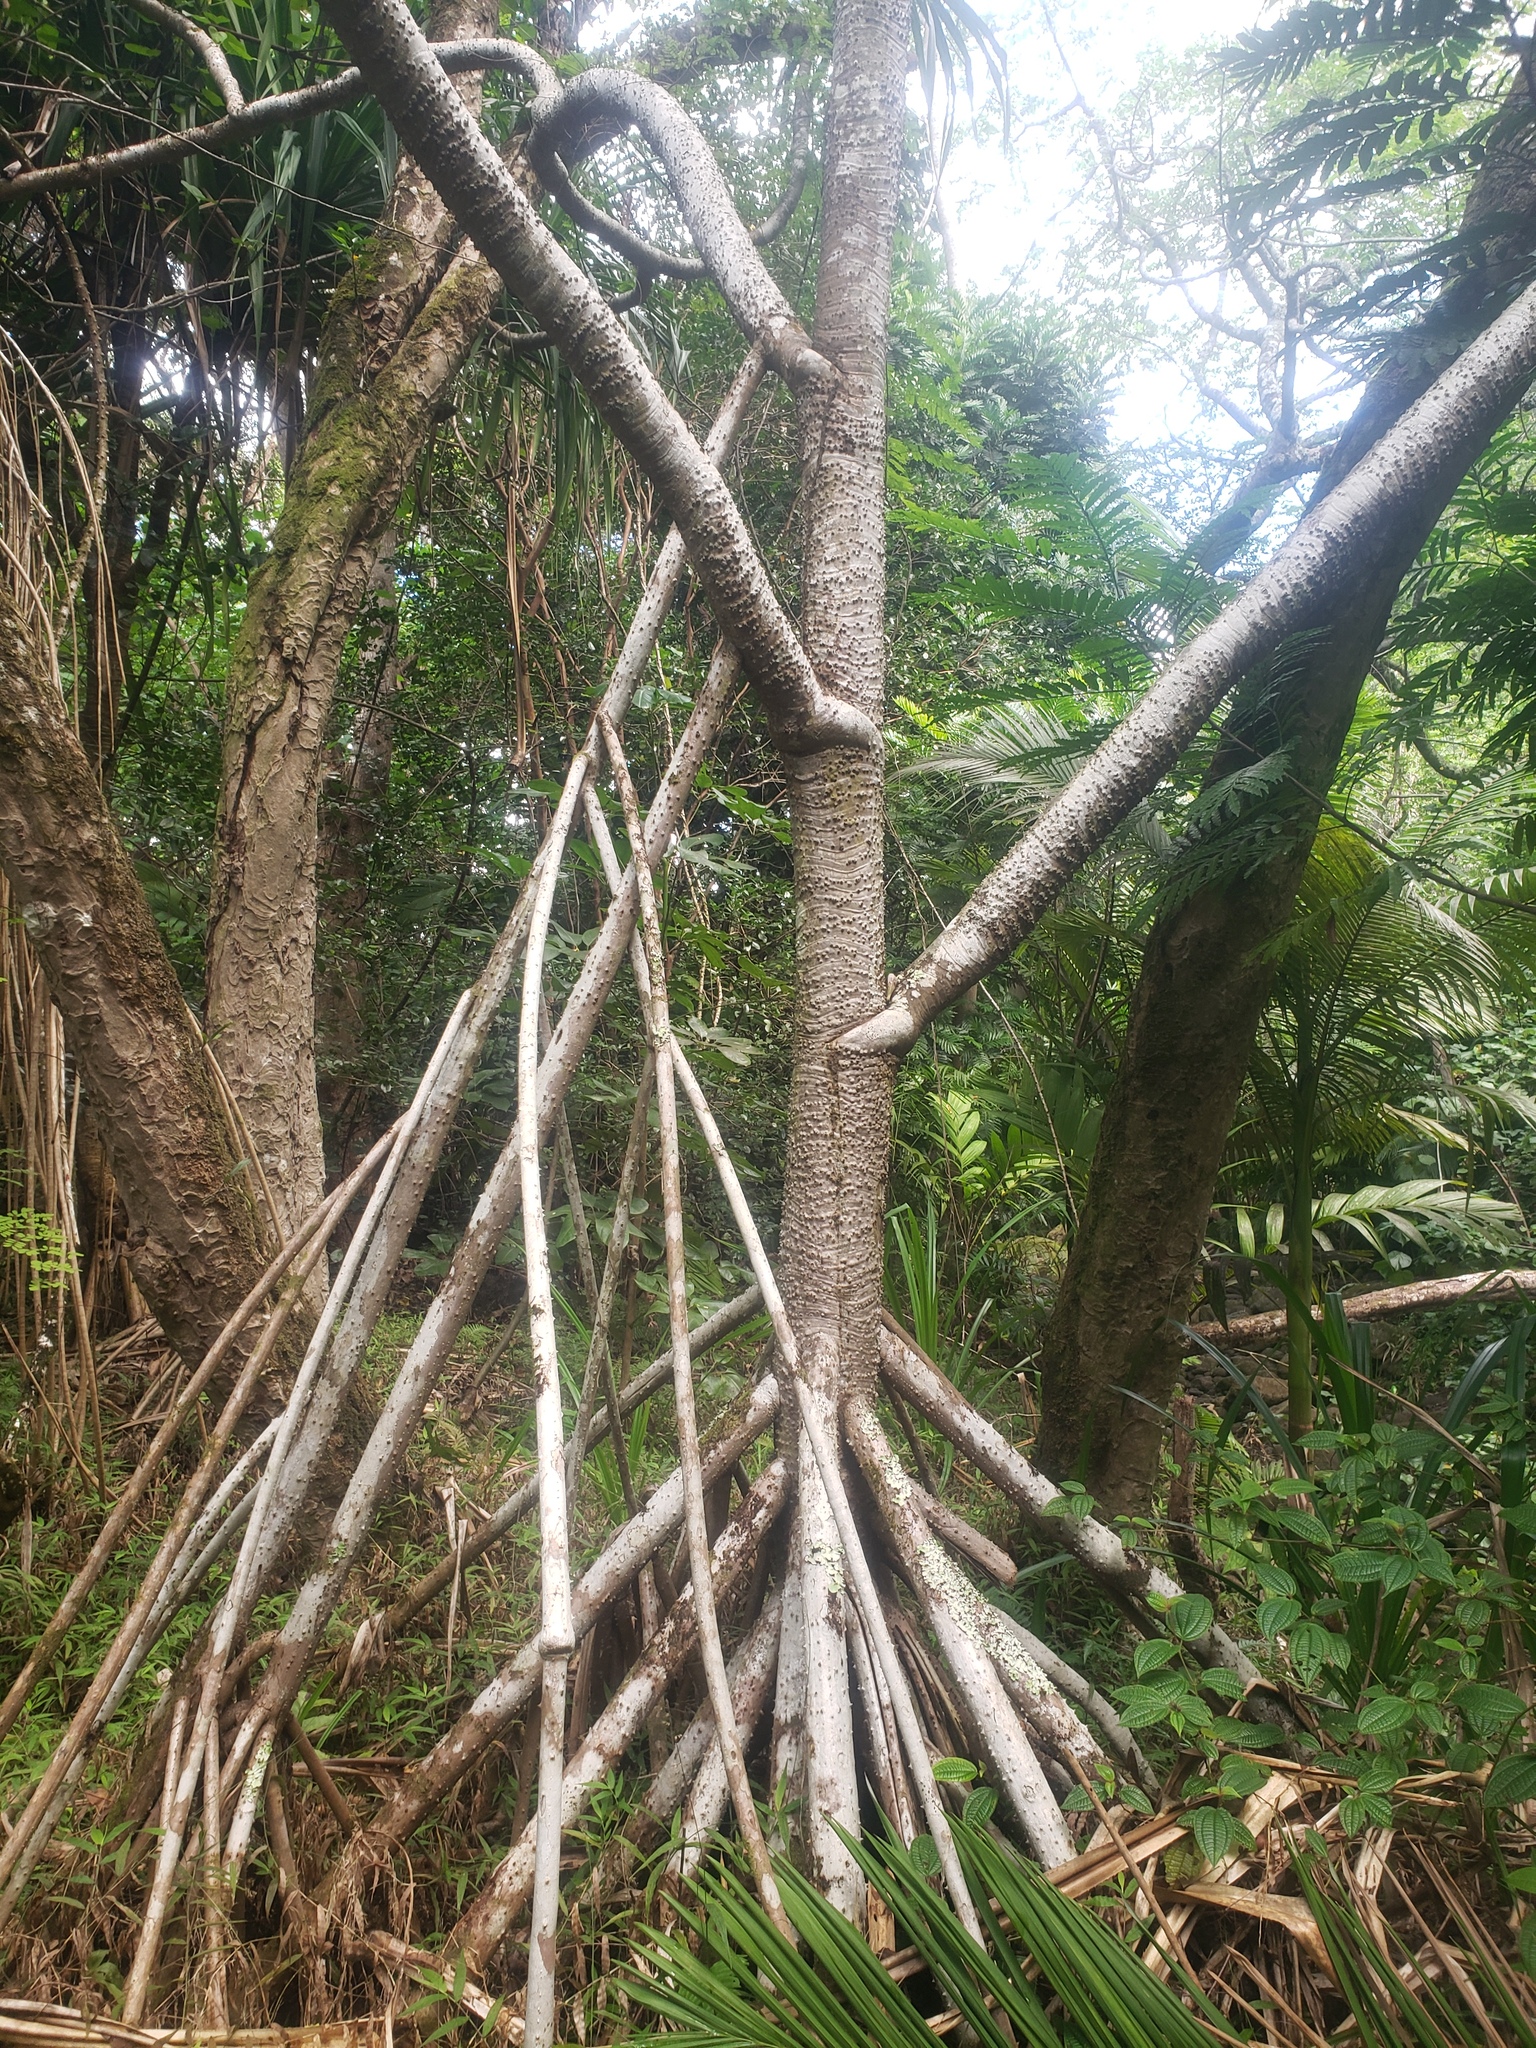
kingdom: Plantae
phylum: Tracheophyta
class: Liliopsida
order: Pandanales
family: Pandanaceae
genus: Pandanus
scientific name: Pandanus tectorius
